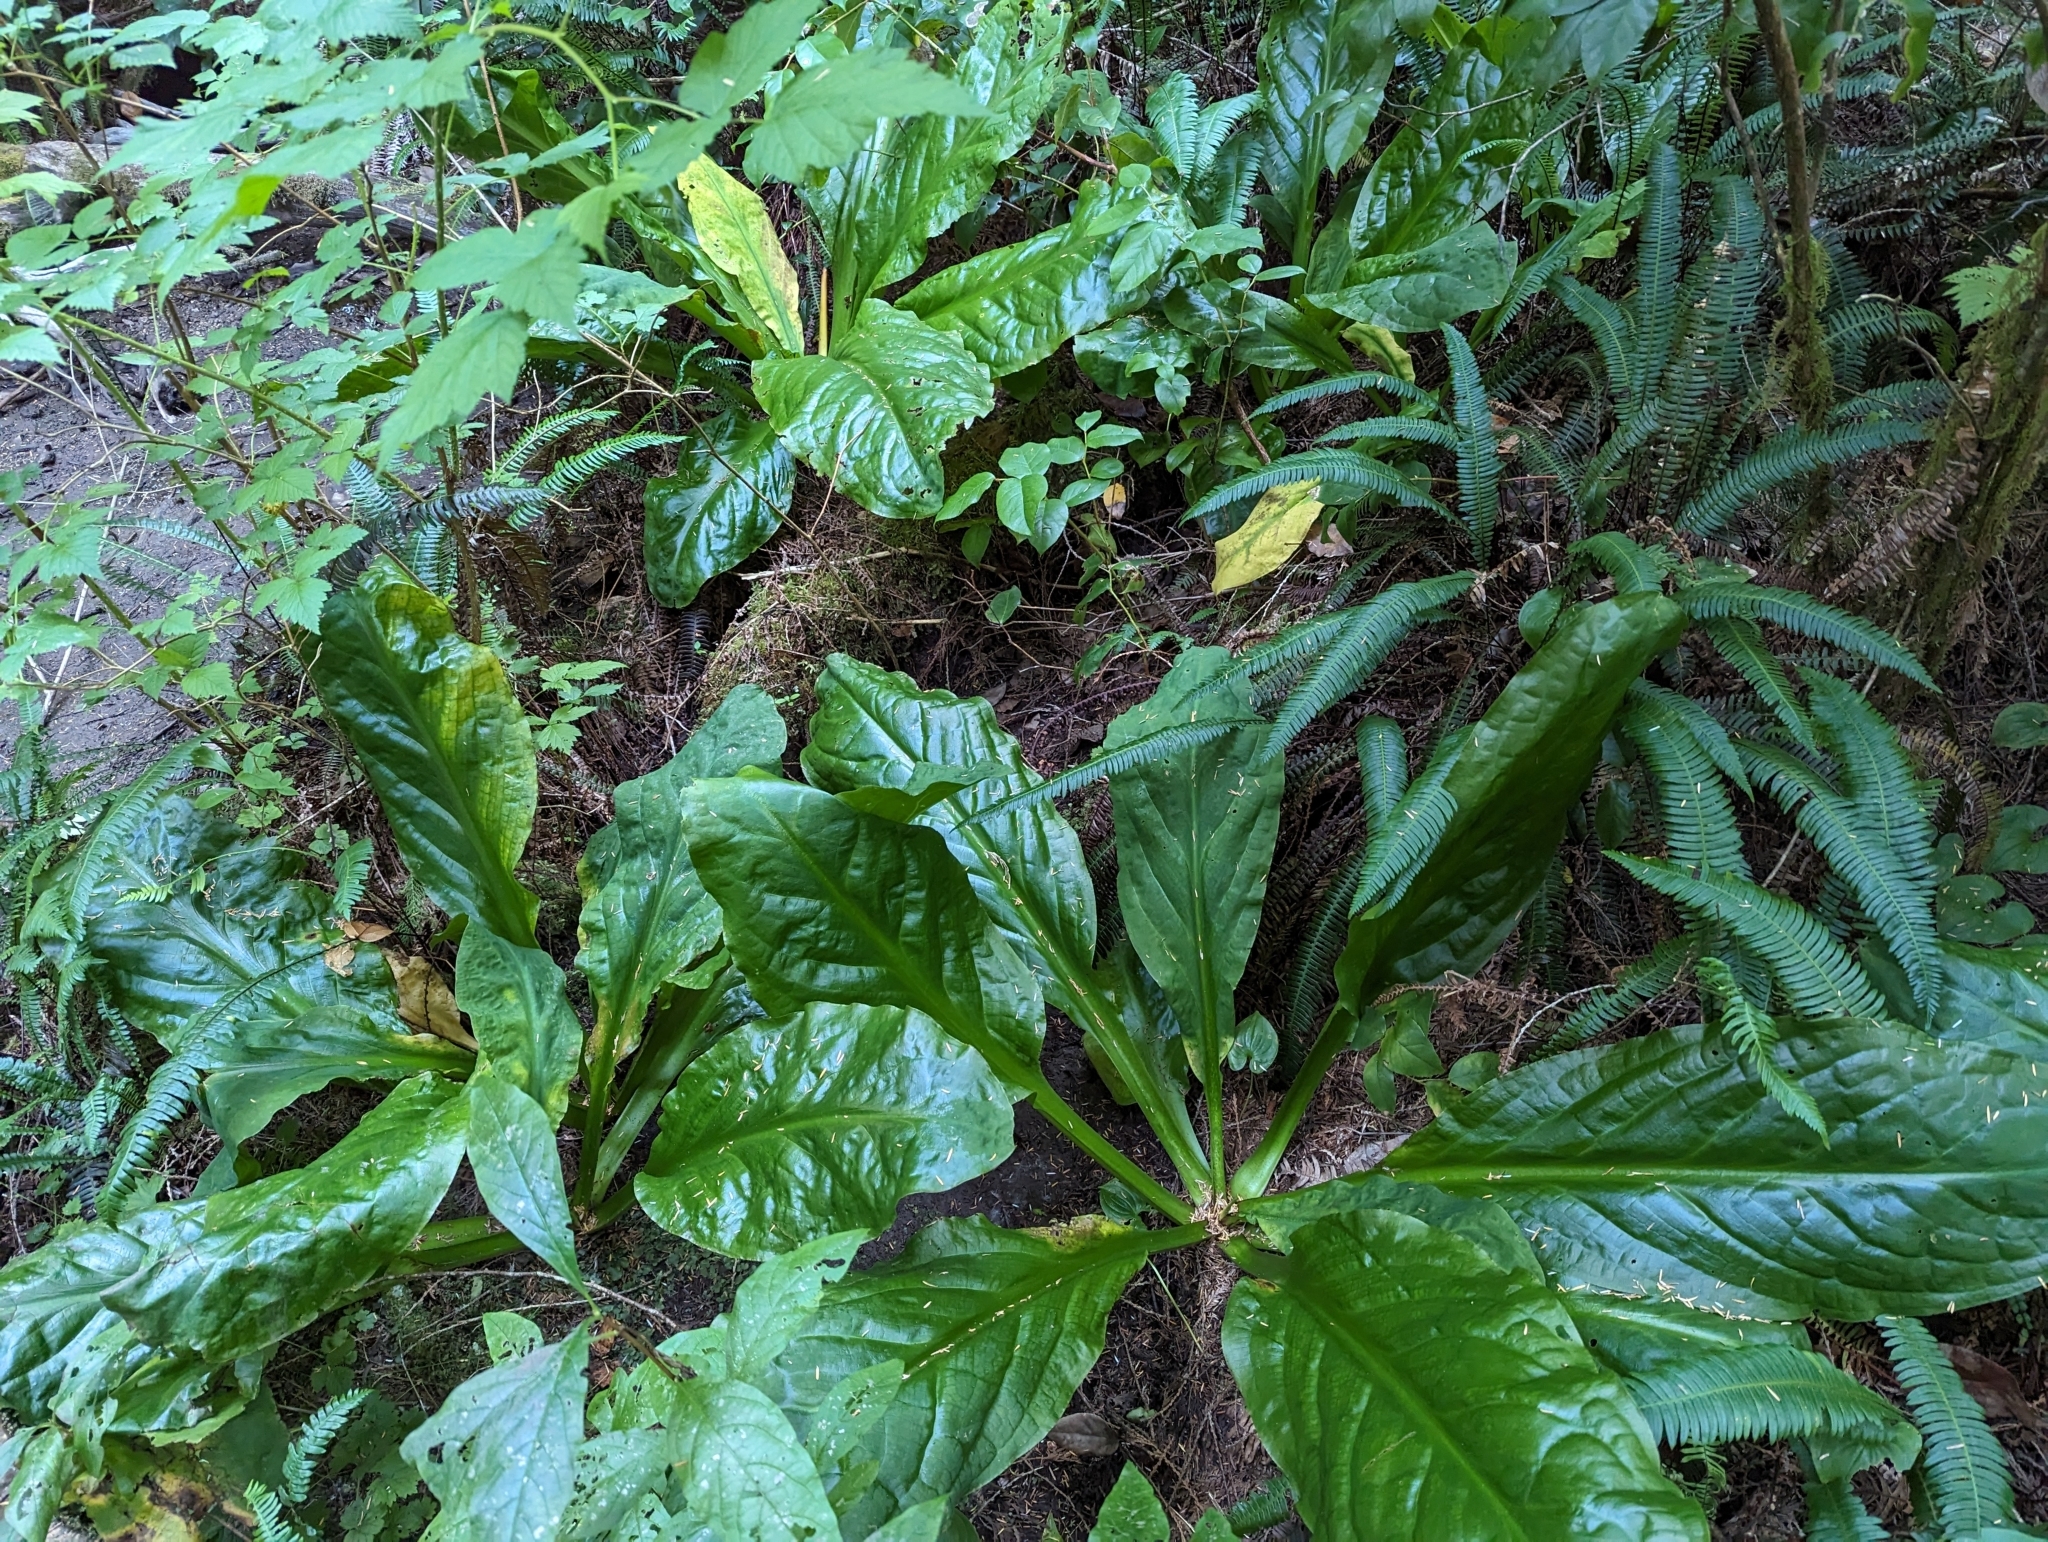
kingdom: Plantae
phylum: Tracheophyta
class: Liliopsida
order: Alismatales
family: Araceae
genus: Lysichiton
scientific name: Lysichiton americanus
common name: American skunk cabbage
